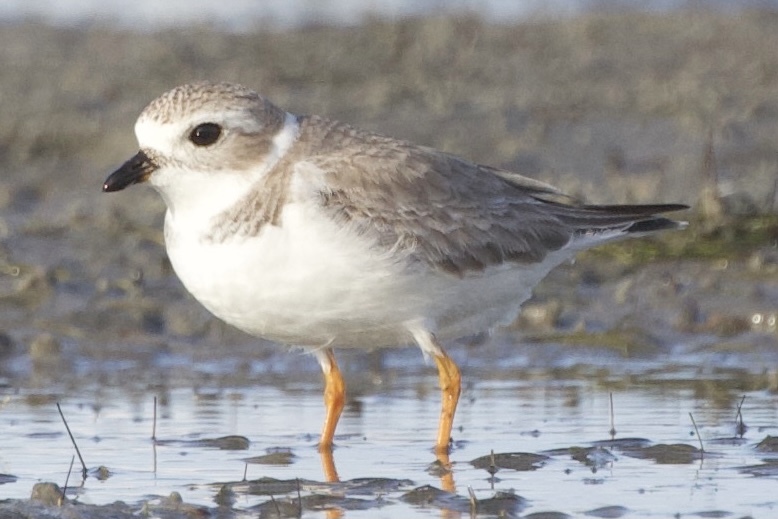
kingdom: Animalia
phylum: Chordata
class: Aves
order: Charadriiformes
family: Charadriidae
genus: Charadrius
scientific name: Charadrius melodus
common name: Piping plover
